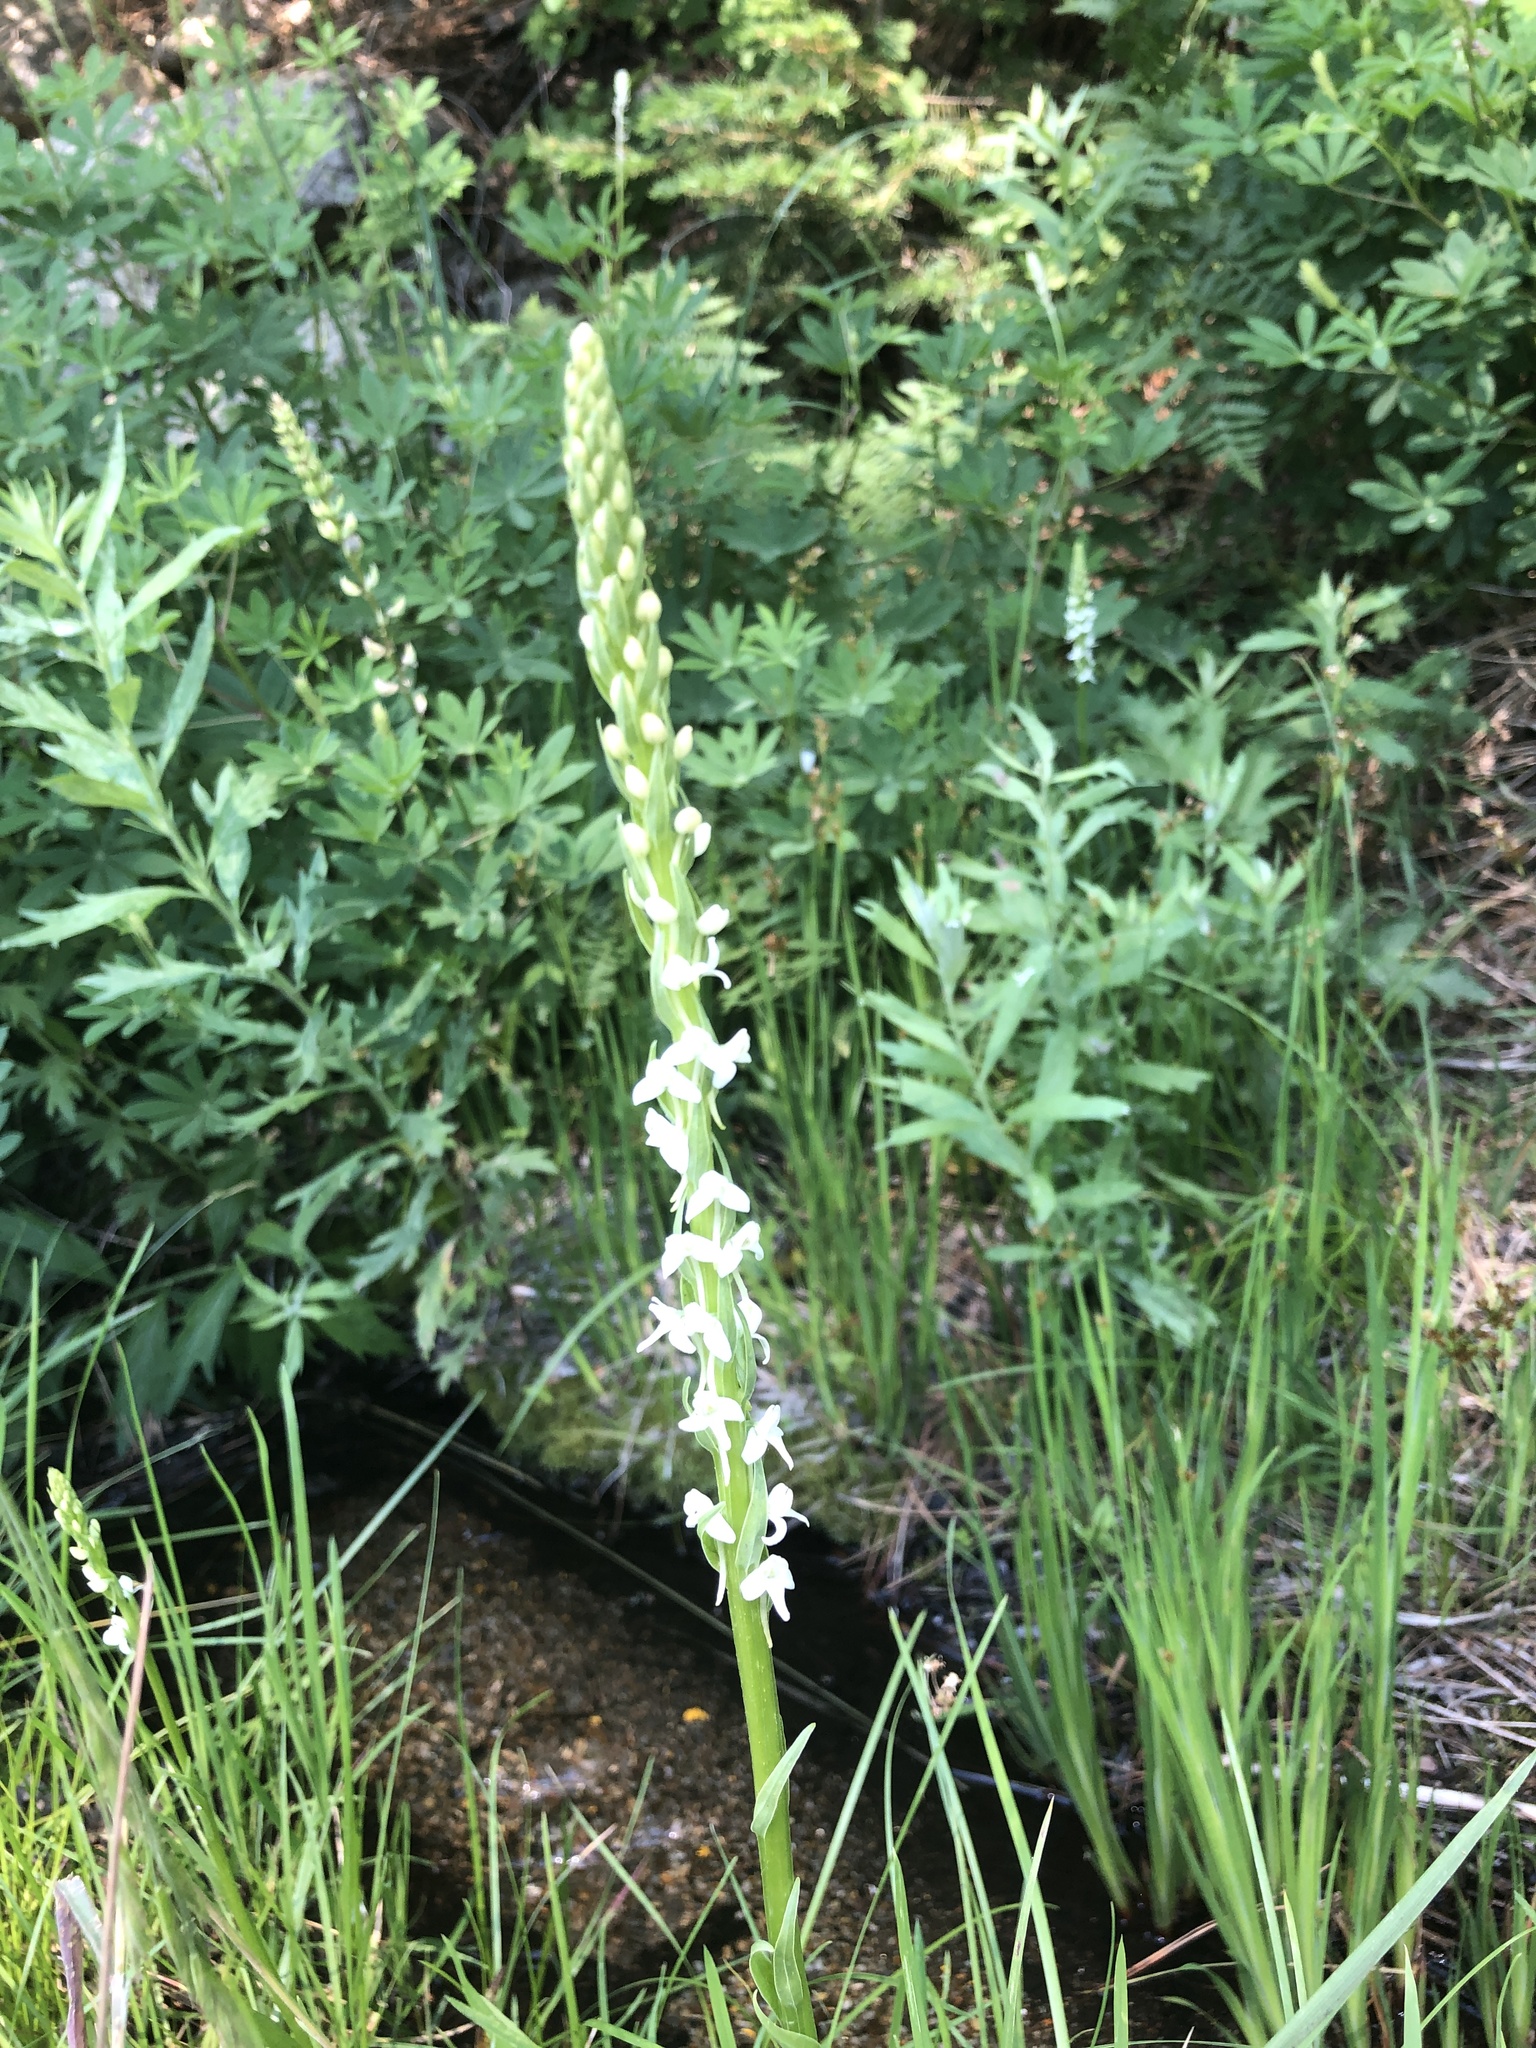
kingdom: Plantae
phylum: Tracheophyta
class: Liliopsida
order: Asparagales
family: Orchidaceae
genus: Platanthera
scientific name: Platanthera dilatata
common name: Bog candles
